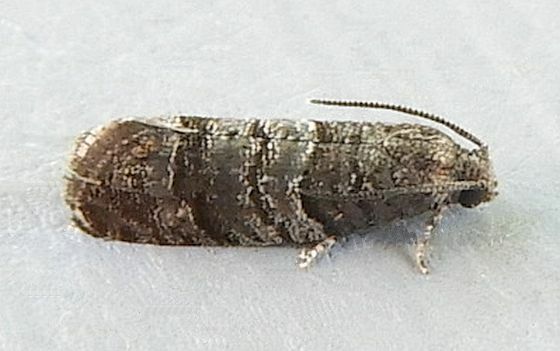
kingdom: Animalia
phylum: Arthropoda
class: Insecta
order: Lepidoptera
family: Tortricidae
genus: Larisa
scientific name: Larisa subsolana
